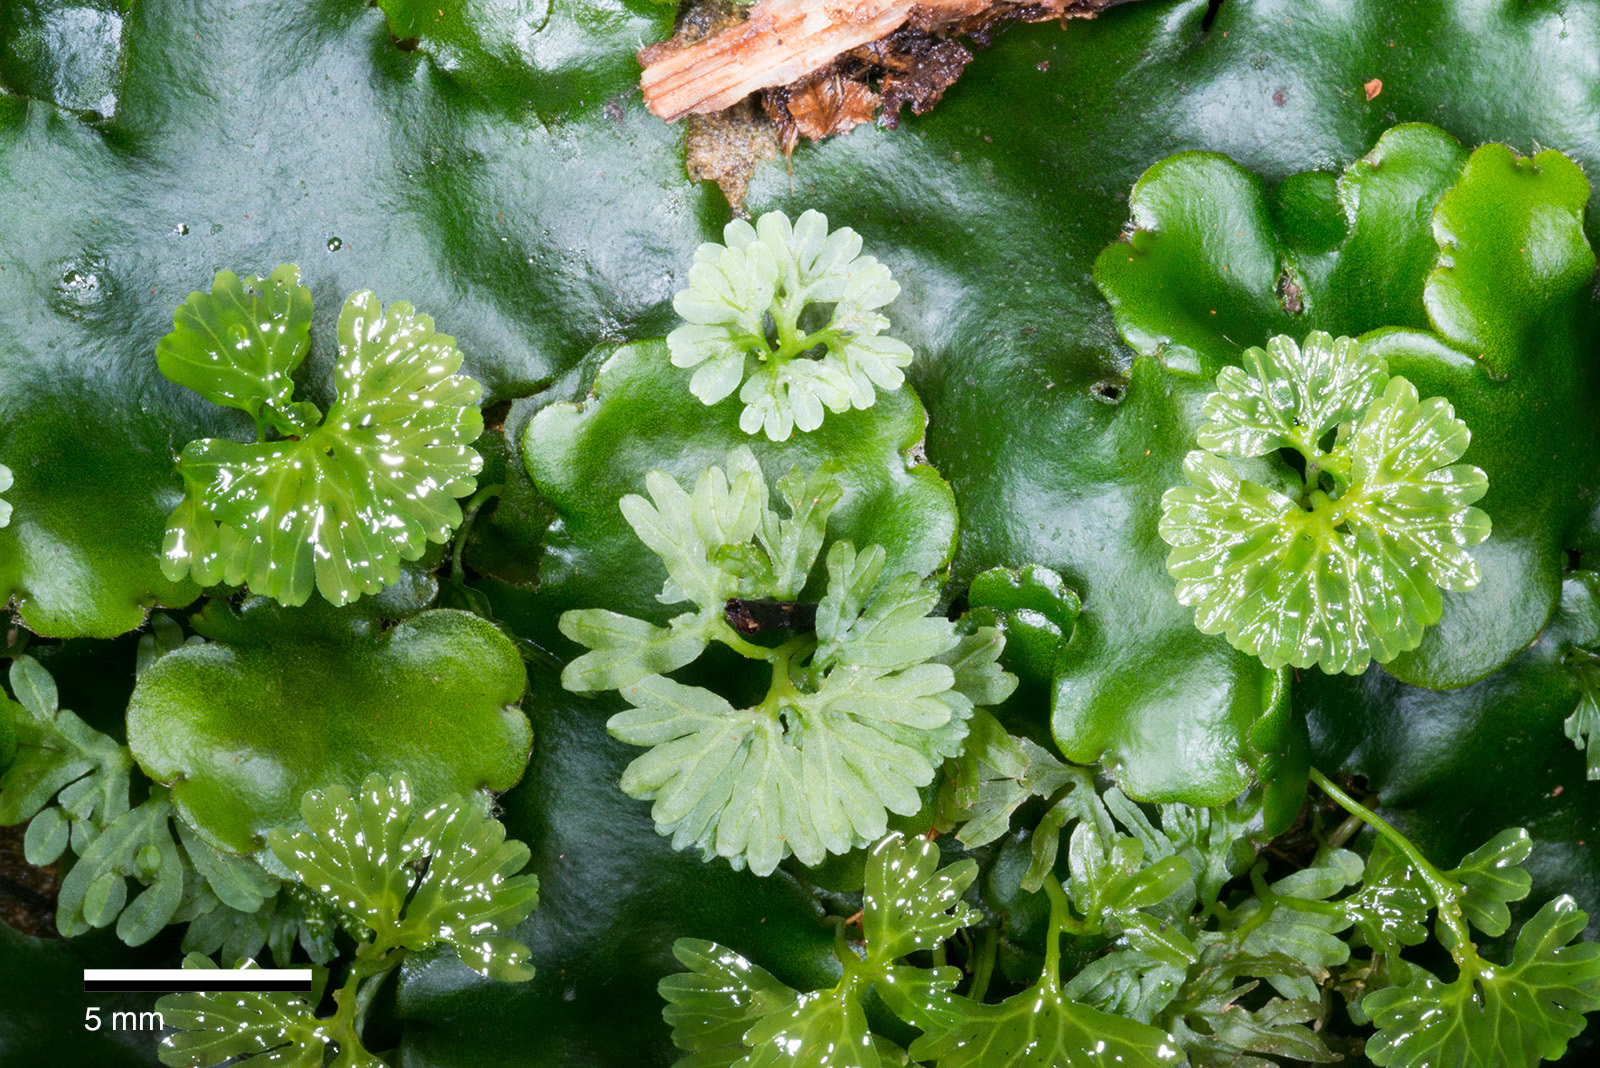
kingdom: Plantae
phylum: Marchantiophyta
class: Jungermanniopsida
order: Pallaviciniales
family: Hymenophytaceae
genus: Hymenophyton
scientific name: Hymenophyton flabellatum
